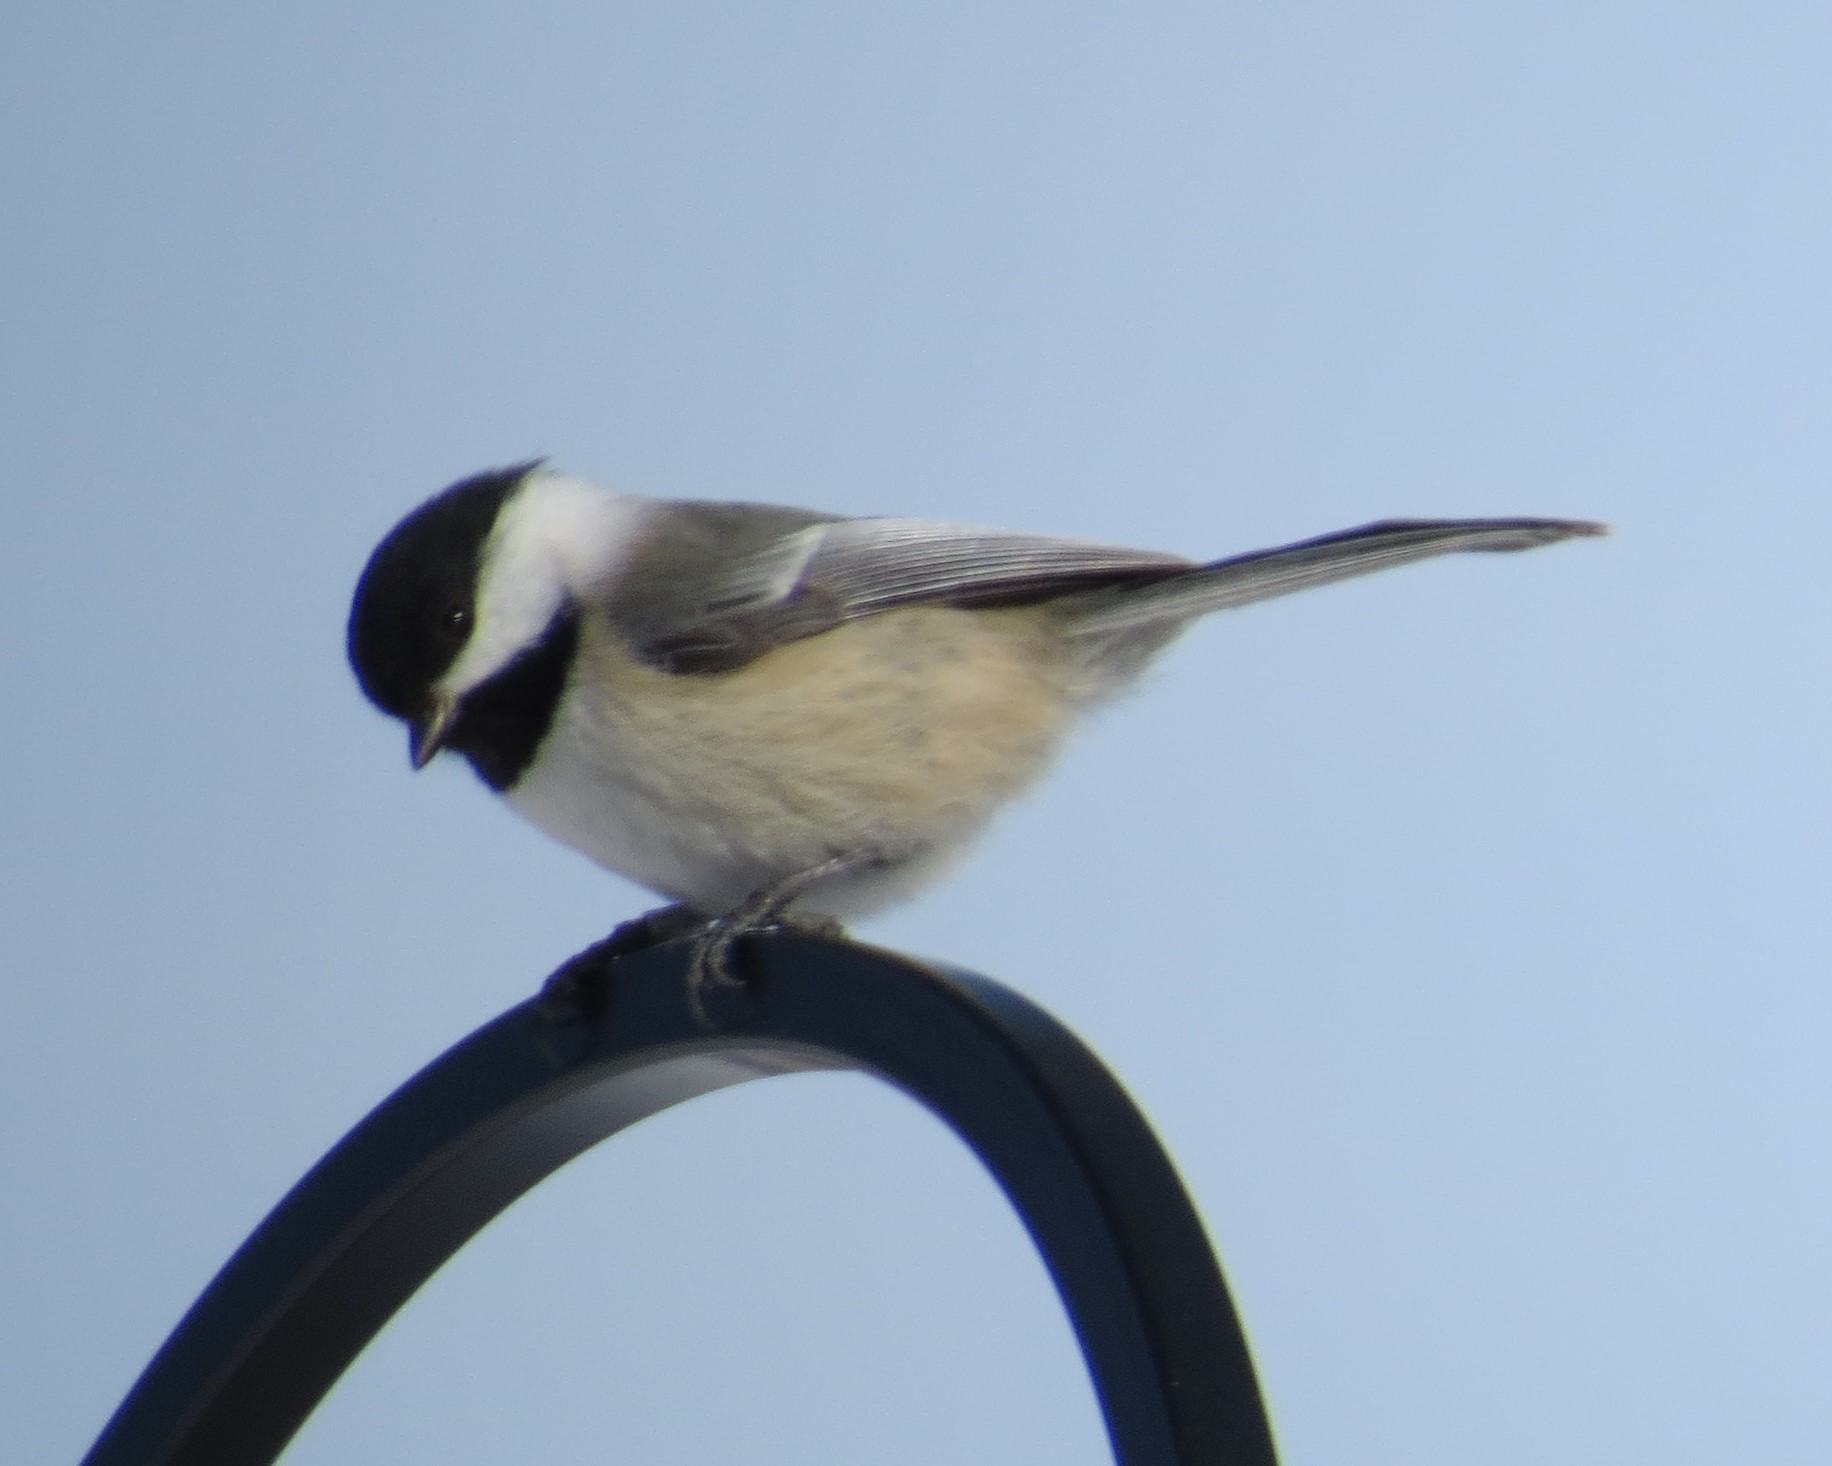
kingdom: Animalia
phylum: Chordata
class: Aves
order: Passeriformes
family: Paridae
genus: Poecile
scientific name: Poecile atricapillus
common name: Black-capped chickadee
